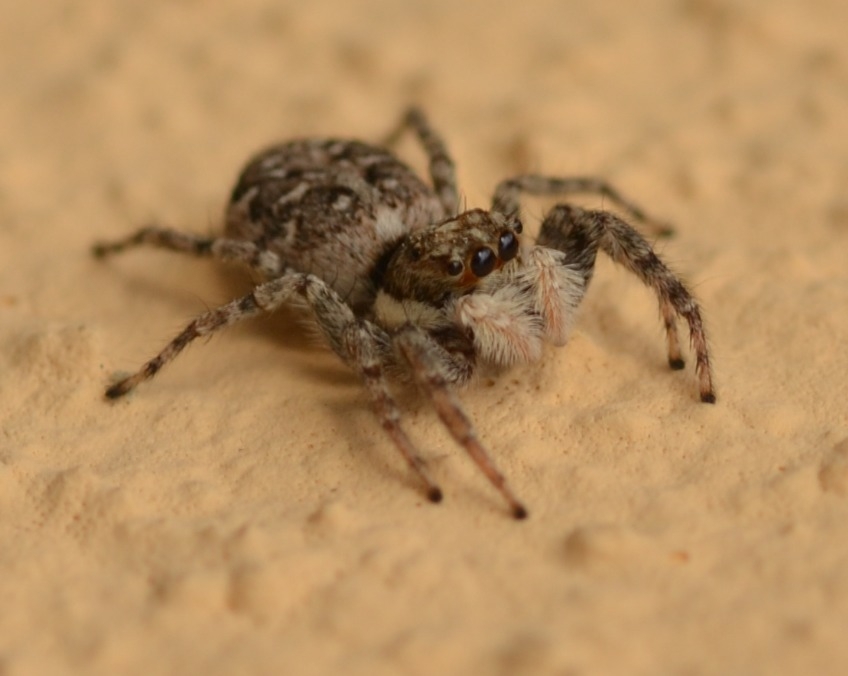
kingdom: Animalia
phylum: Arthropoda
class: Arachnida
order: Araneae
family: Salticidae
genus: Menemerus
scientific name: Menemerus semilimbatus
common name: Jumping spider
